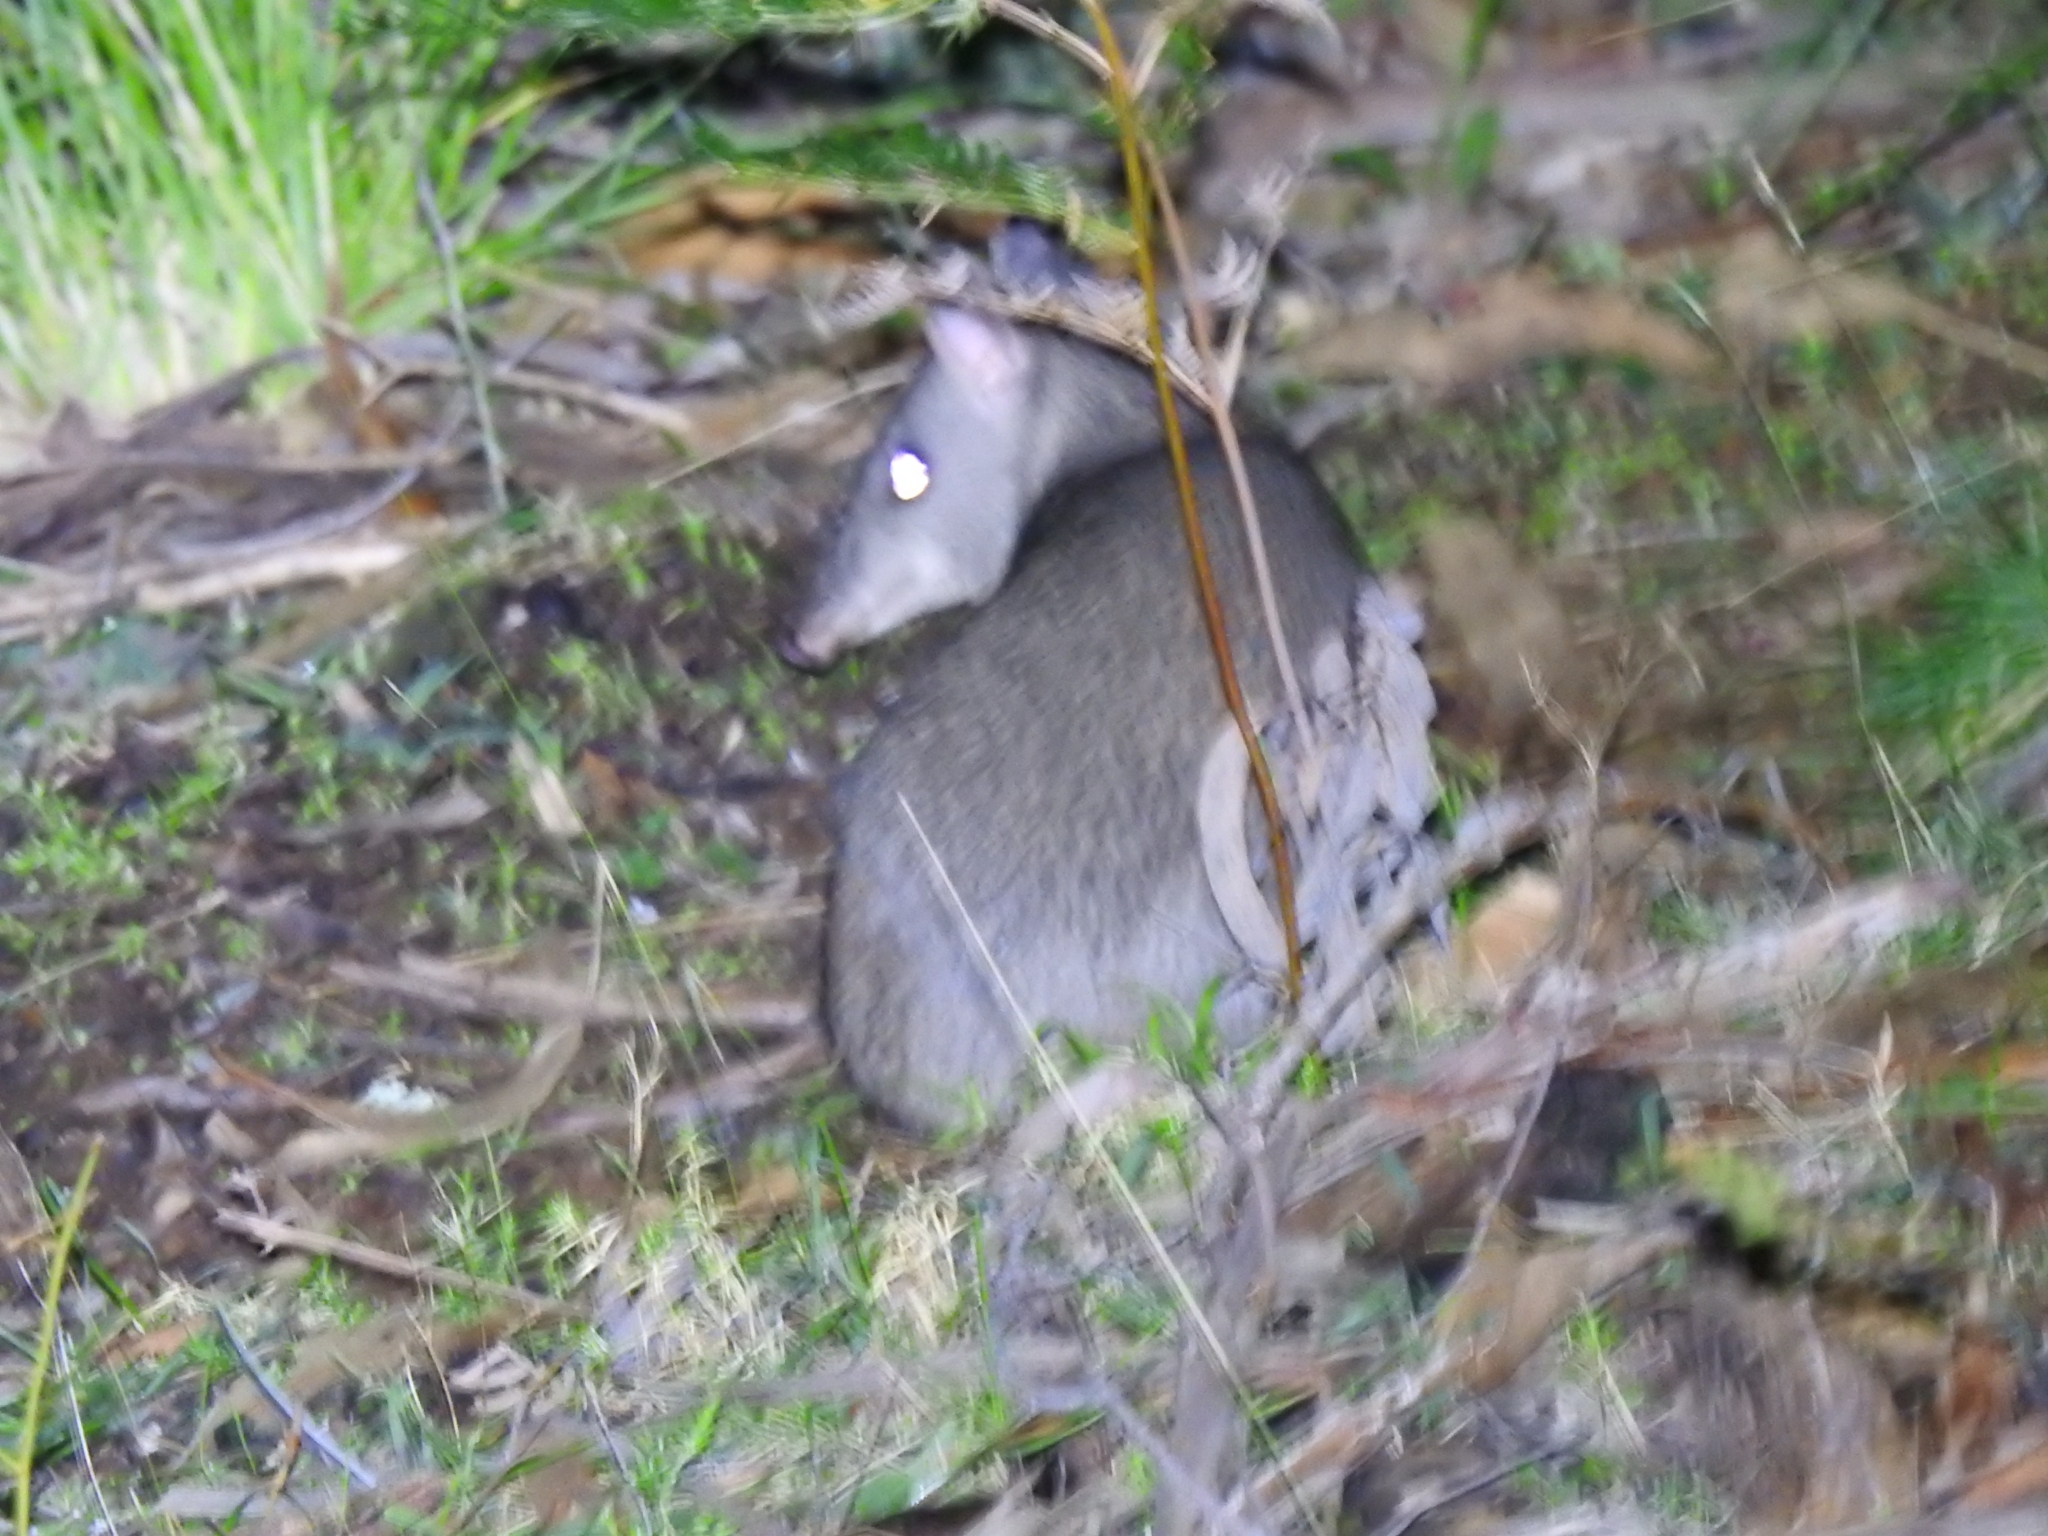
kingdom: Animalia
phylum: Chordata
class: Mammalia
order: Peramelemorphia
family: Peramelidae
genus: Perameles
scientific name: Perameles nasuta
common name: Long-nosed bandicoot
